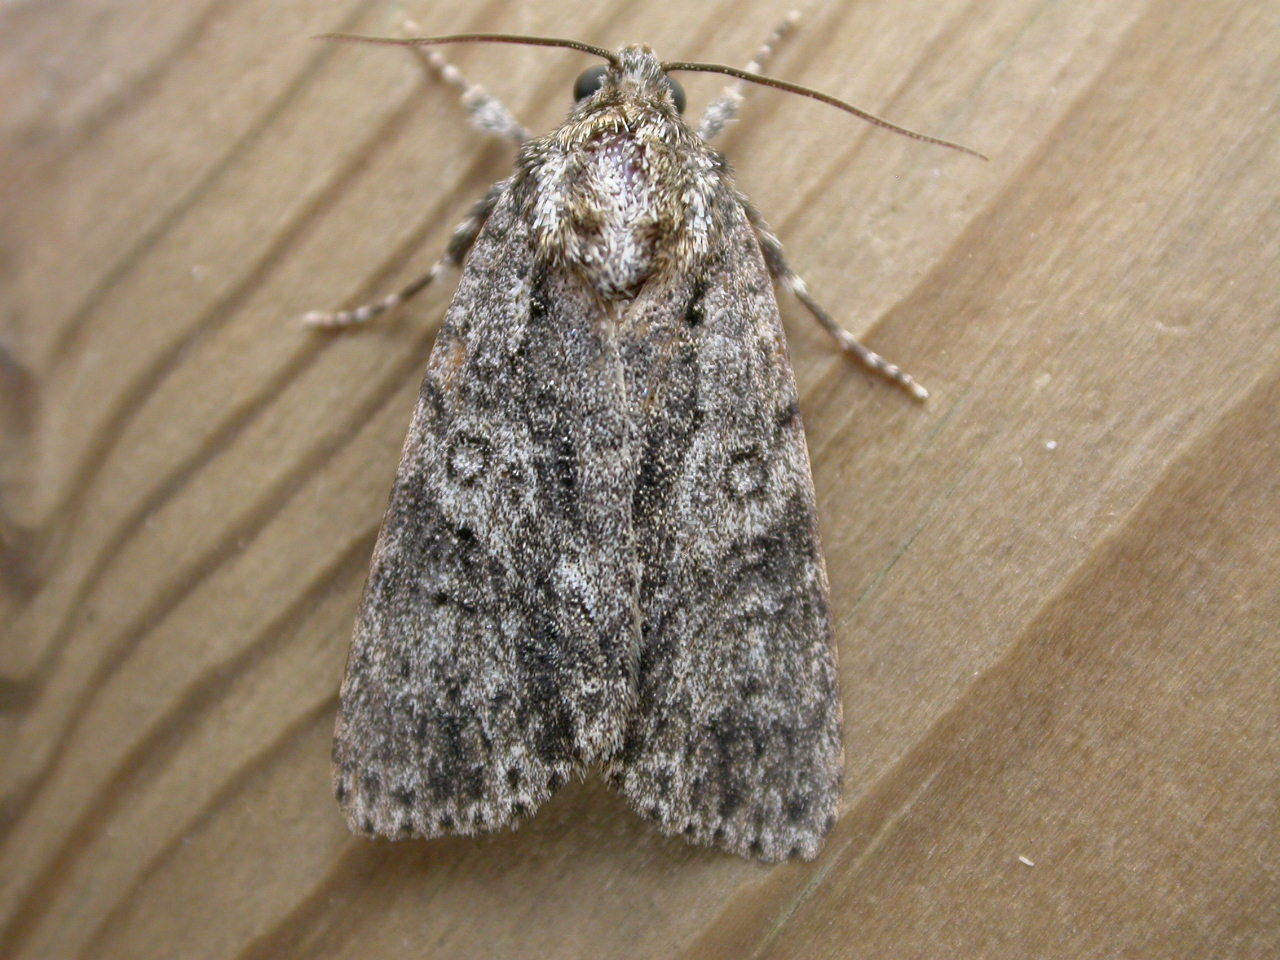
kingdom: Animalia
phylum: Arthropoda
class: Insecta
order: Lepidoptera
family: Noctuidae
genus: Acronicta
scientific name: Acronicta rumicis
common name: Knot grass
